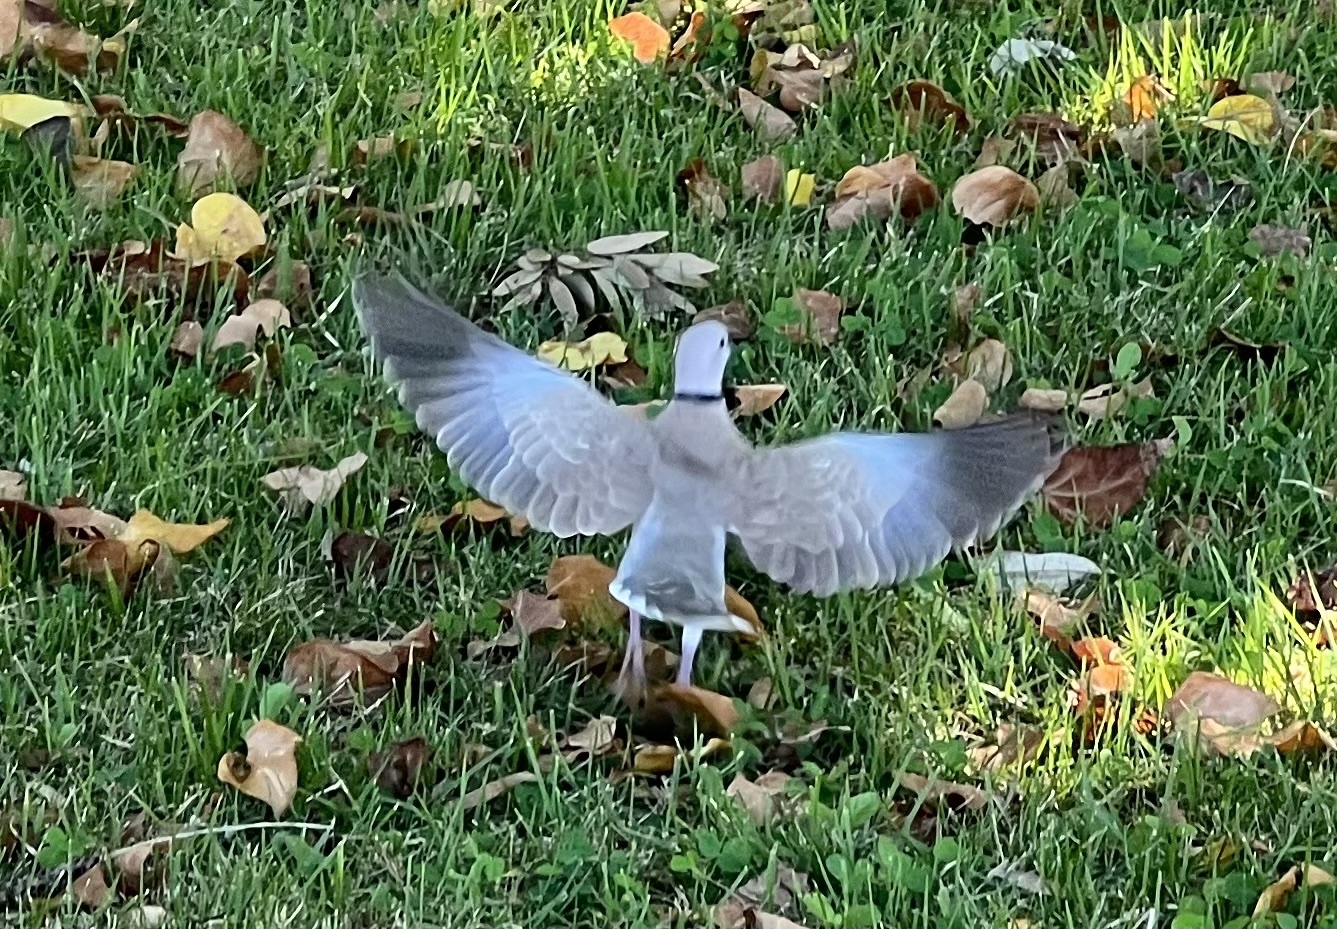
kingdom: Animalia
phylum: Chordata
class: Aves
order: Columbiformes
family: Columbidae
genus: Streptopelia
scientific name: Streptopelia decaocto
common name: Eurasian collared dove
